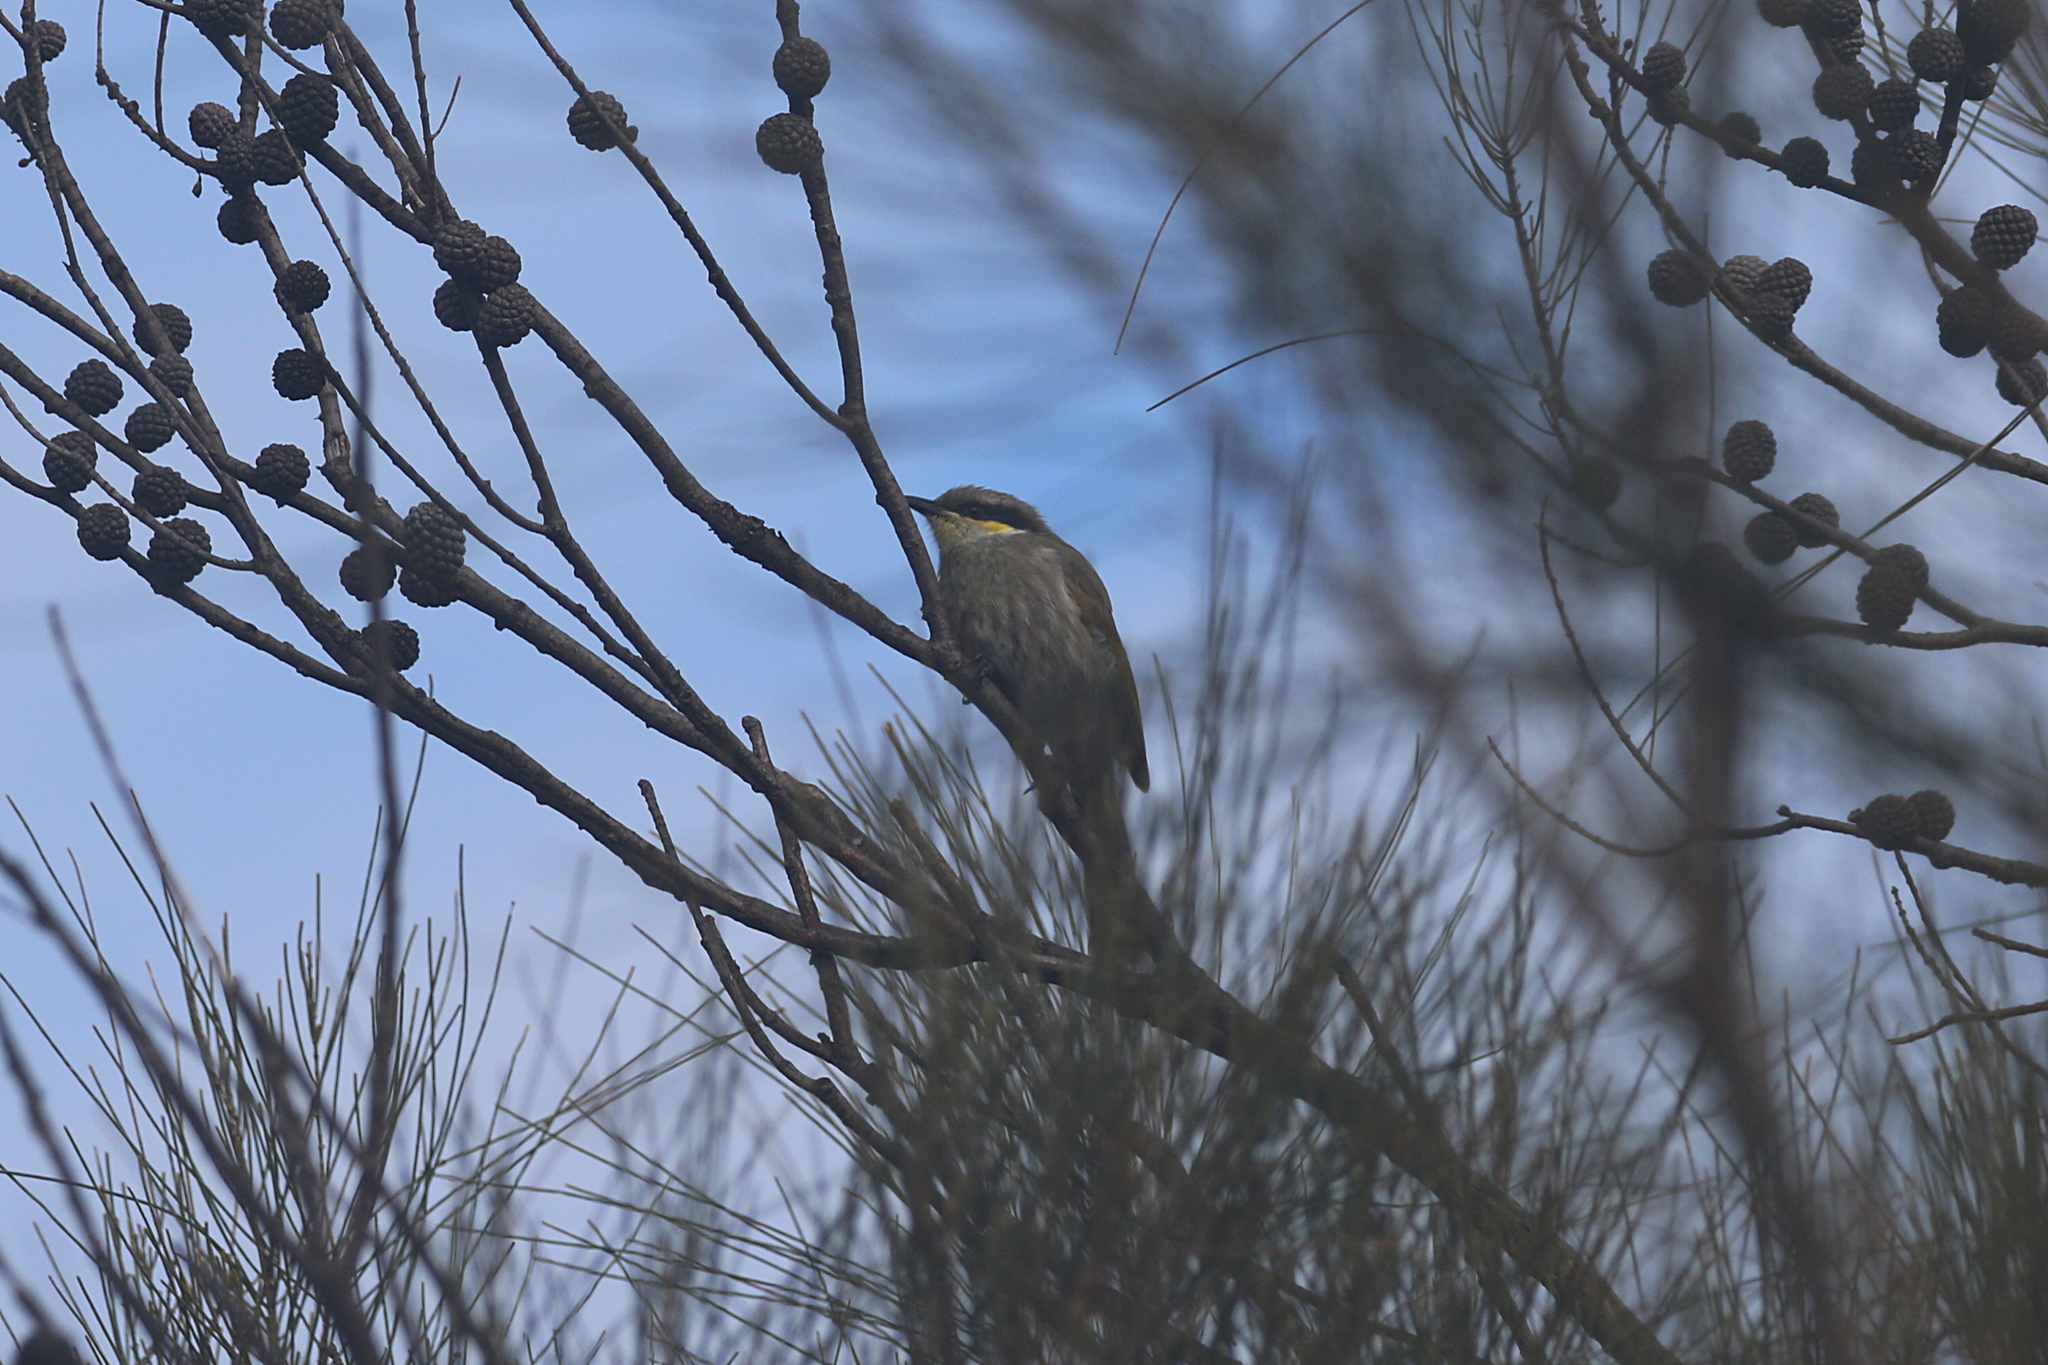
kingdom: Animalia
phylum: Chordata
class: Aves
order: Passeriformes
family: Meliphagidae
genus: Gavicalis
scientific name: Gavicalis virescens
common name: Singing honeyeater
